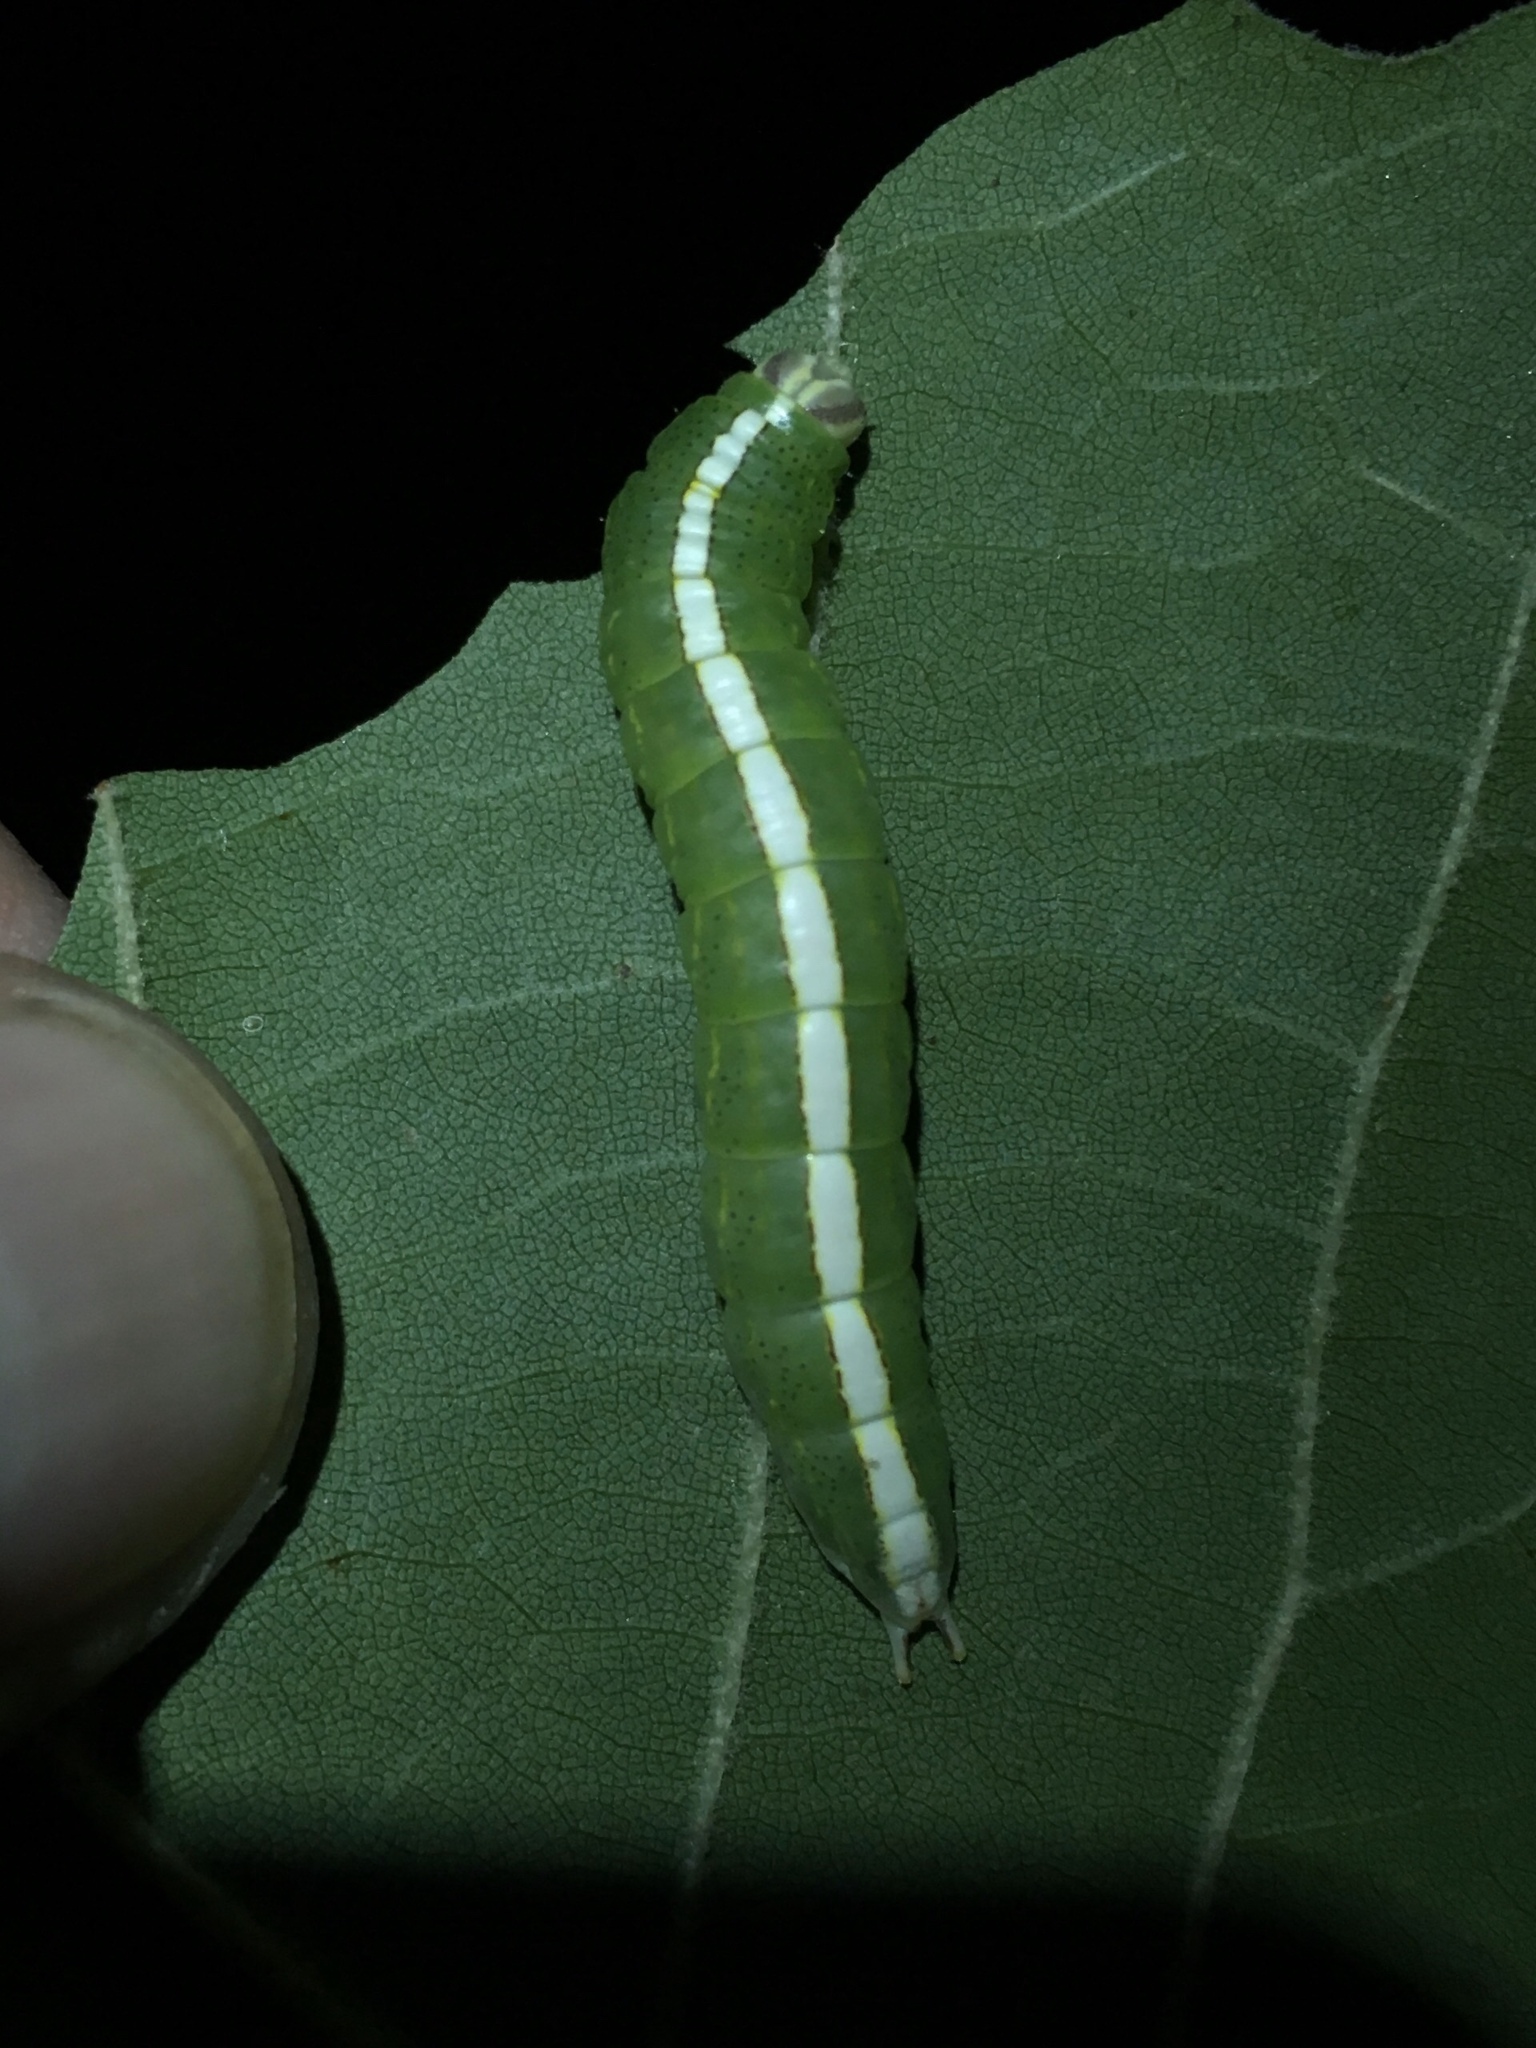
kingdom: Animalia
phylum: Arthropoda
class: Insecta
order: Lepidoptera
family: Notodontidae
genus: Misogada
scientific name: Misogada unicolor
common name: Drab prominent
